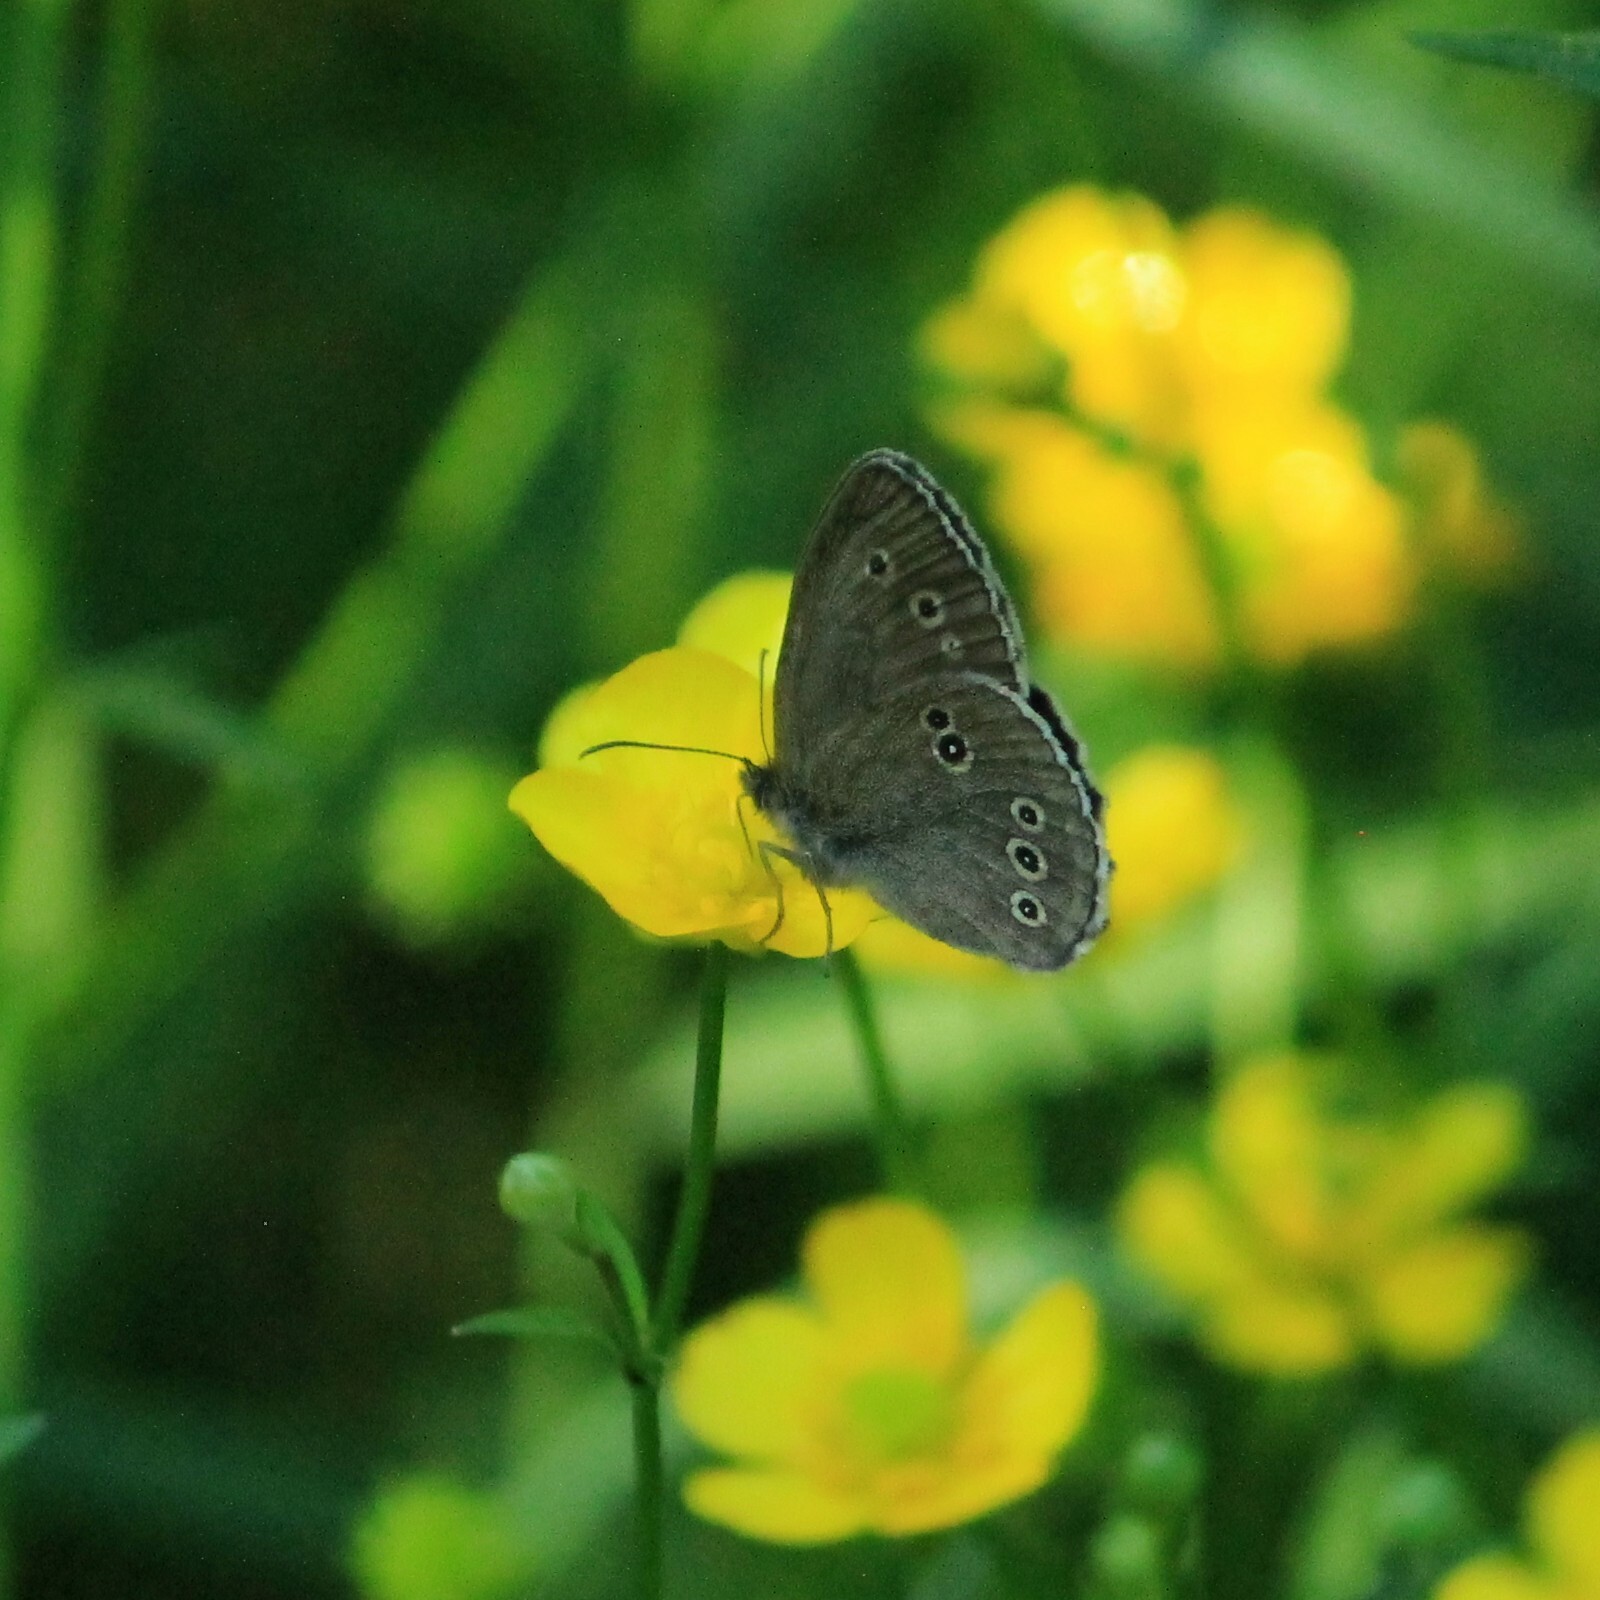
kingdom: Animalia
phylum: Arthropoda
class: Insecta
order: Lepidoptera
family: Nymphalidae
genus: Aphantopus
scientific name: Aphantopus hyperantus
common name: Ringlet
